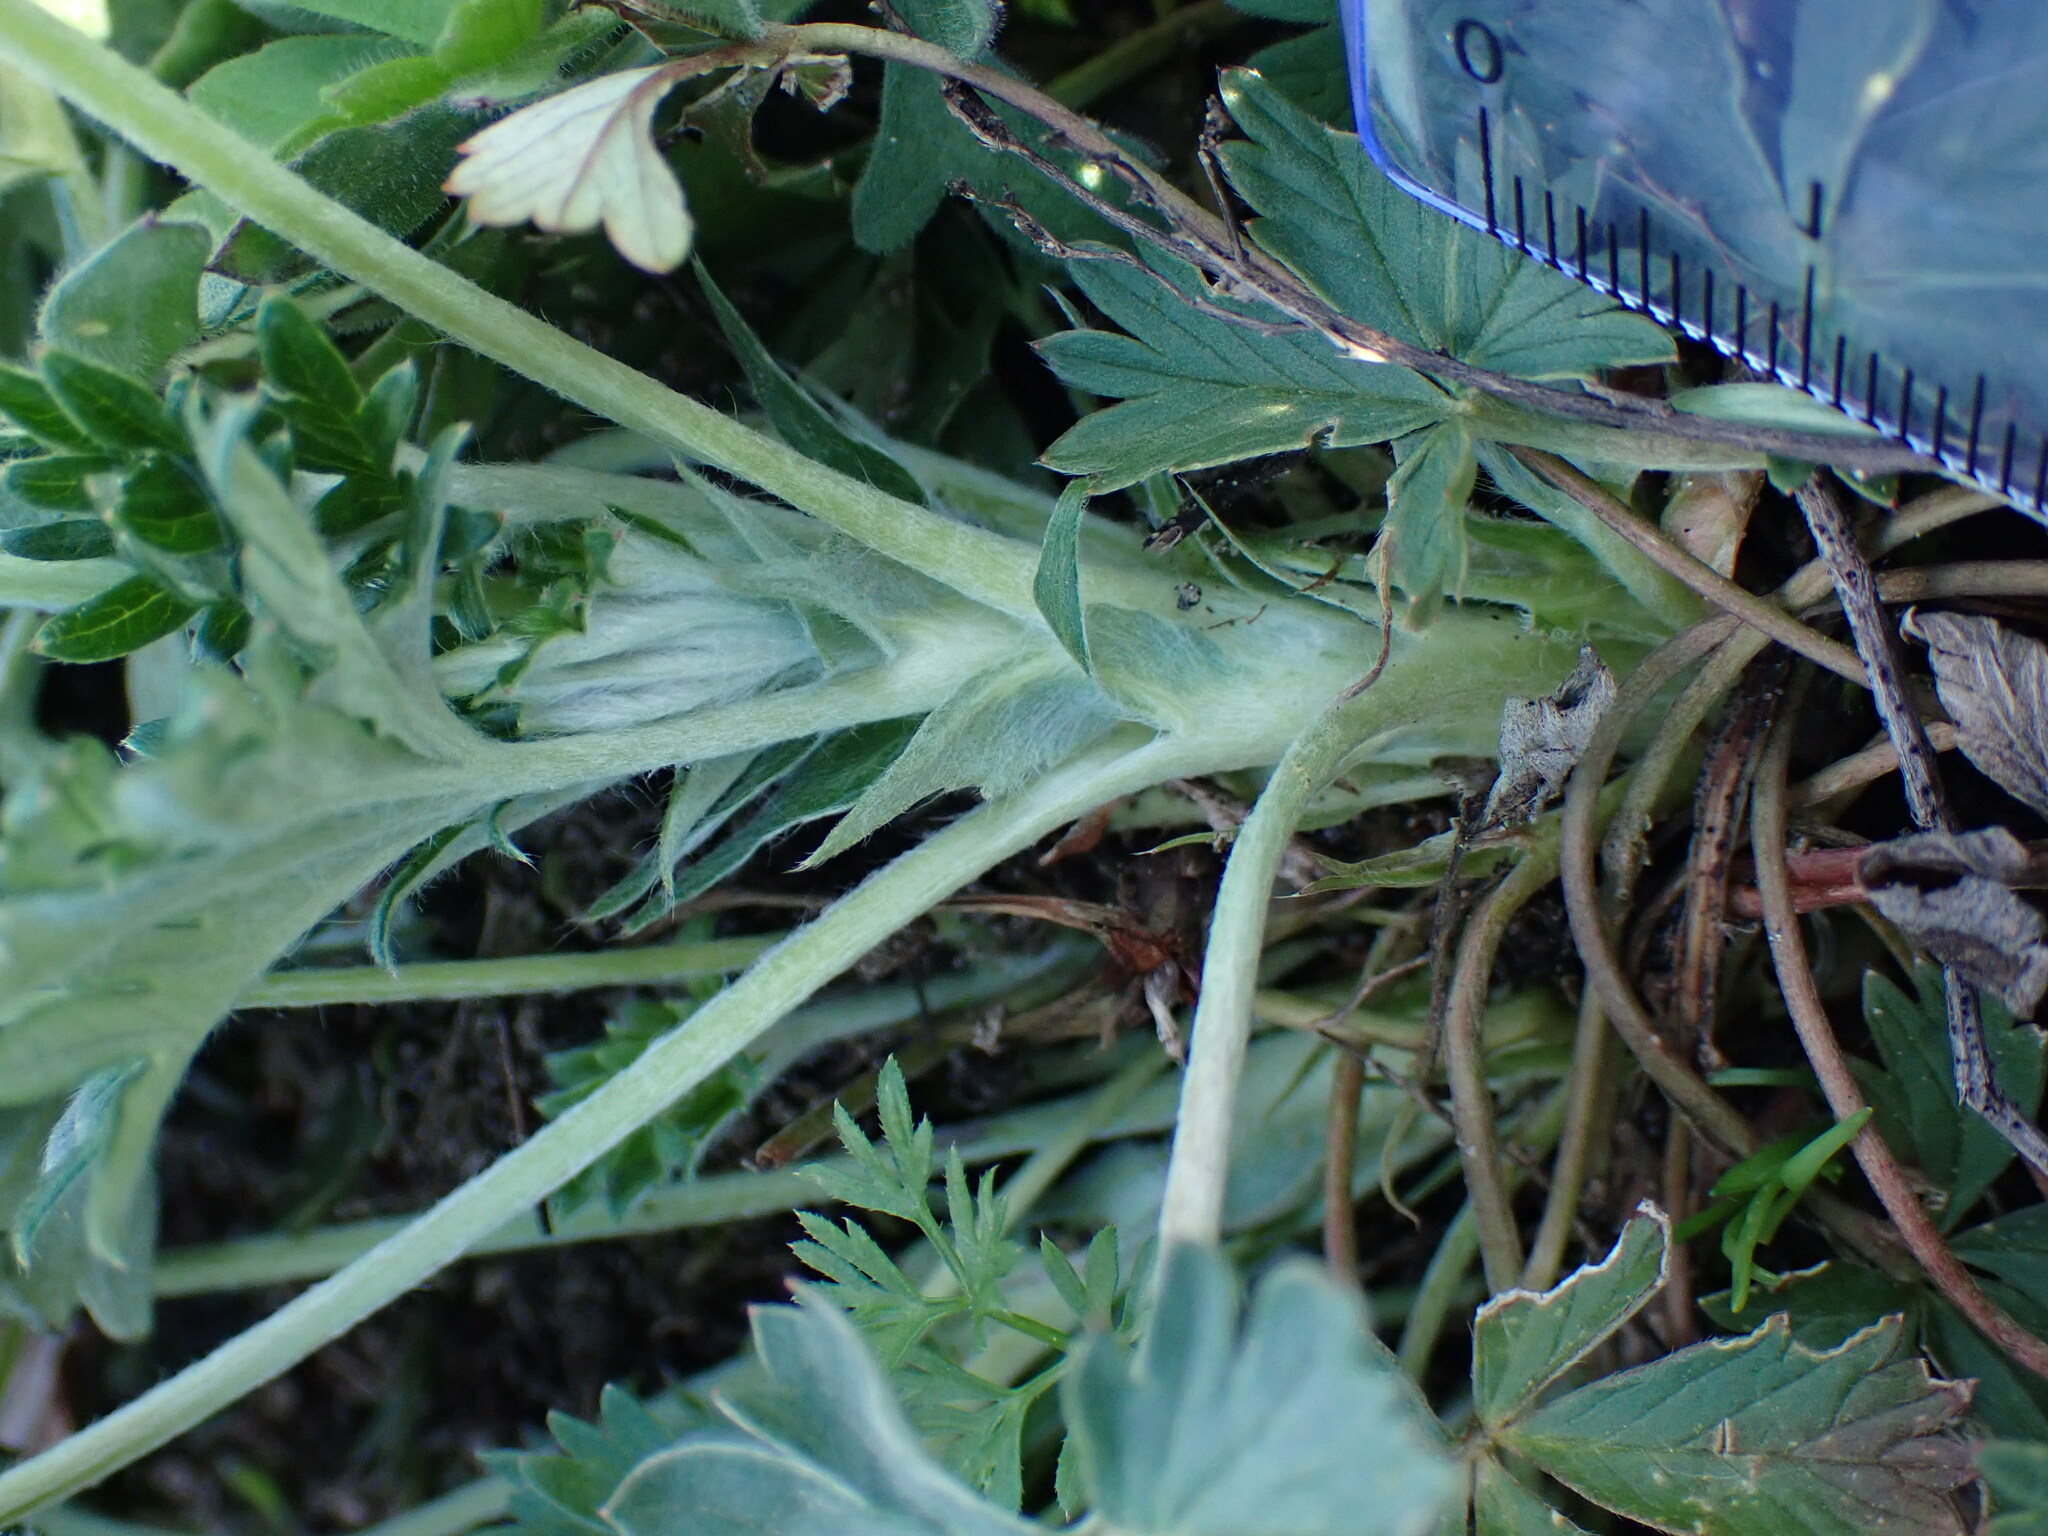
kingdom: Plantae
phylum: Tracheophyta
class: Magnoliopsida
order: Rosales
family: Rosaceae
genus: Potentilla
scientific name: Potentilla argentea
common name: Hoary cinquefoil
